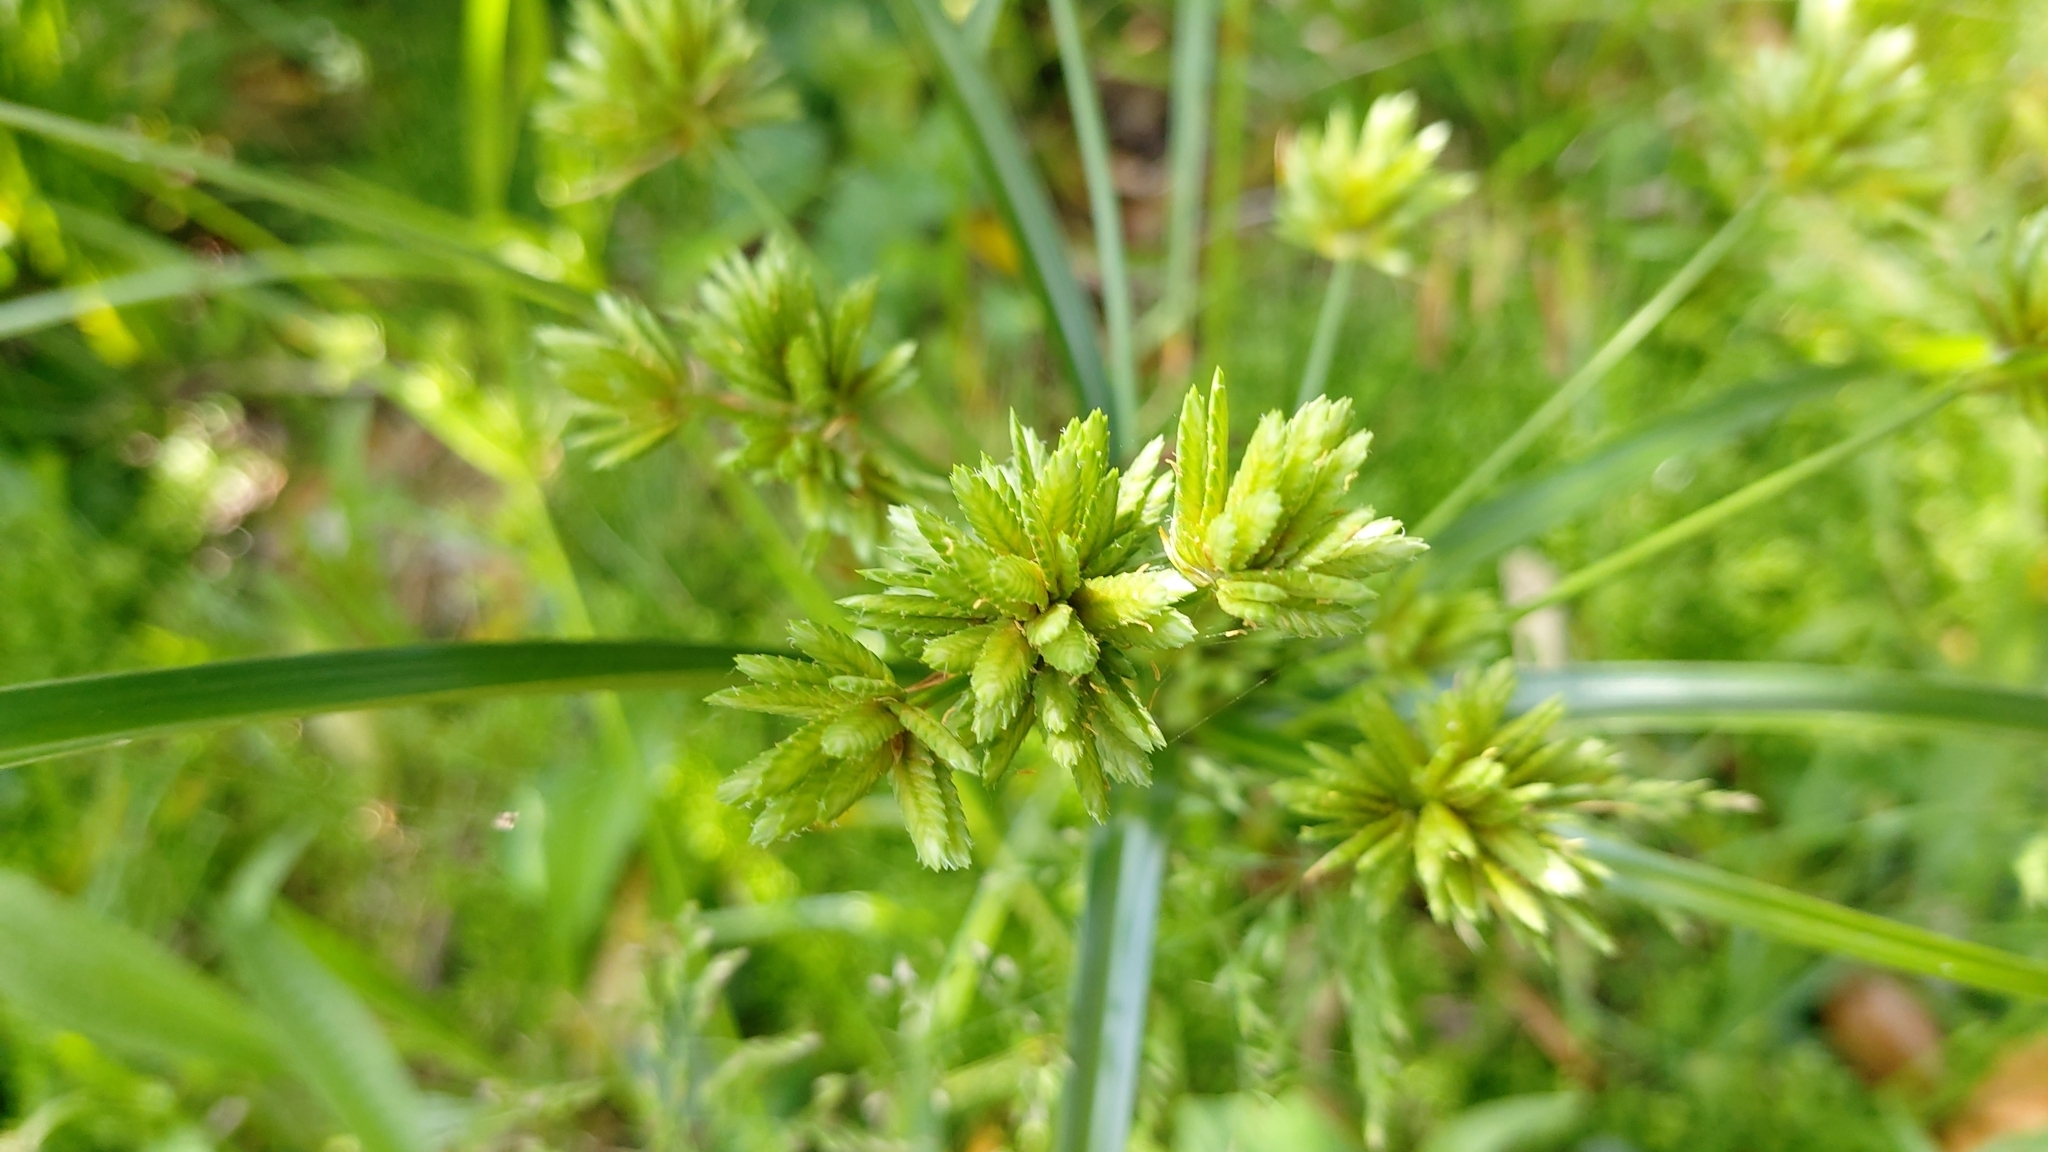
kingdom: Plantae
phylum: Tracheophyta
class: Liliopsida
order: Poales
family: Cyperaceae
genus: Cyperus
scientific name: Cyperus eragrostis
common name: Tall flatsedge
